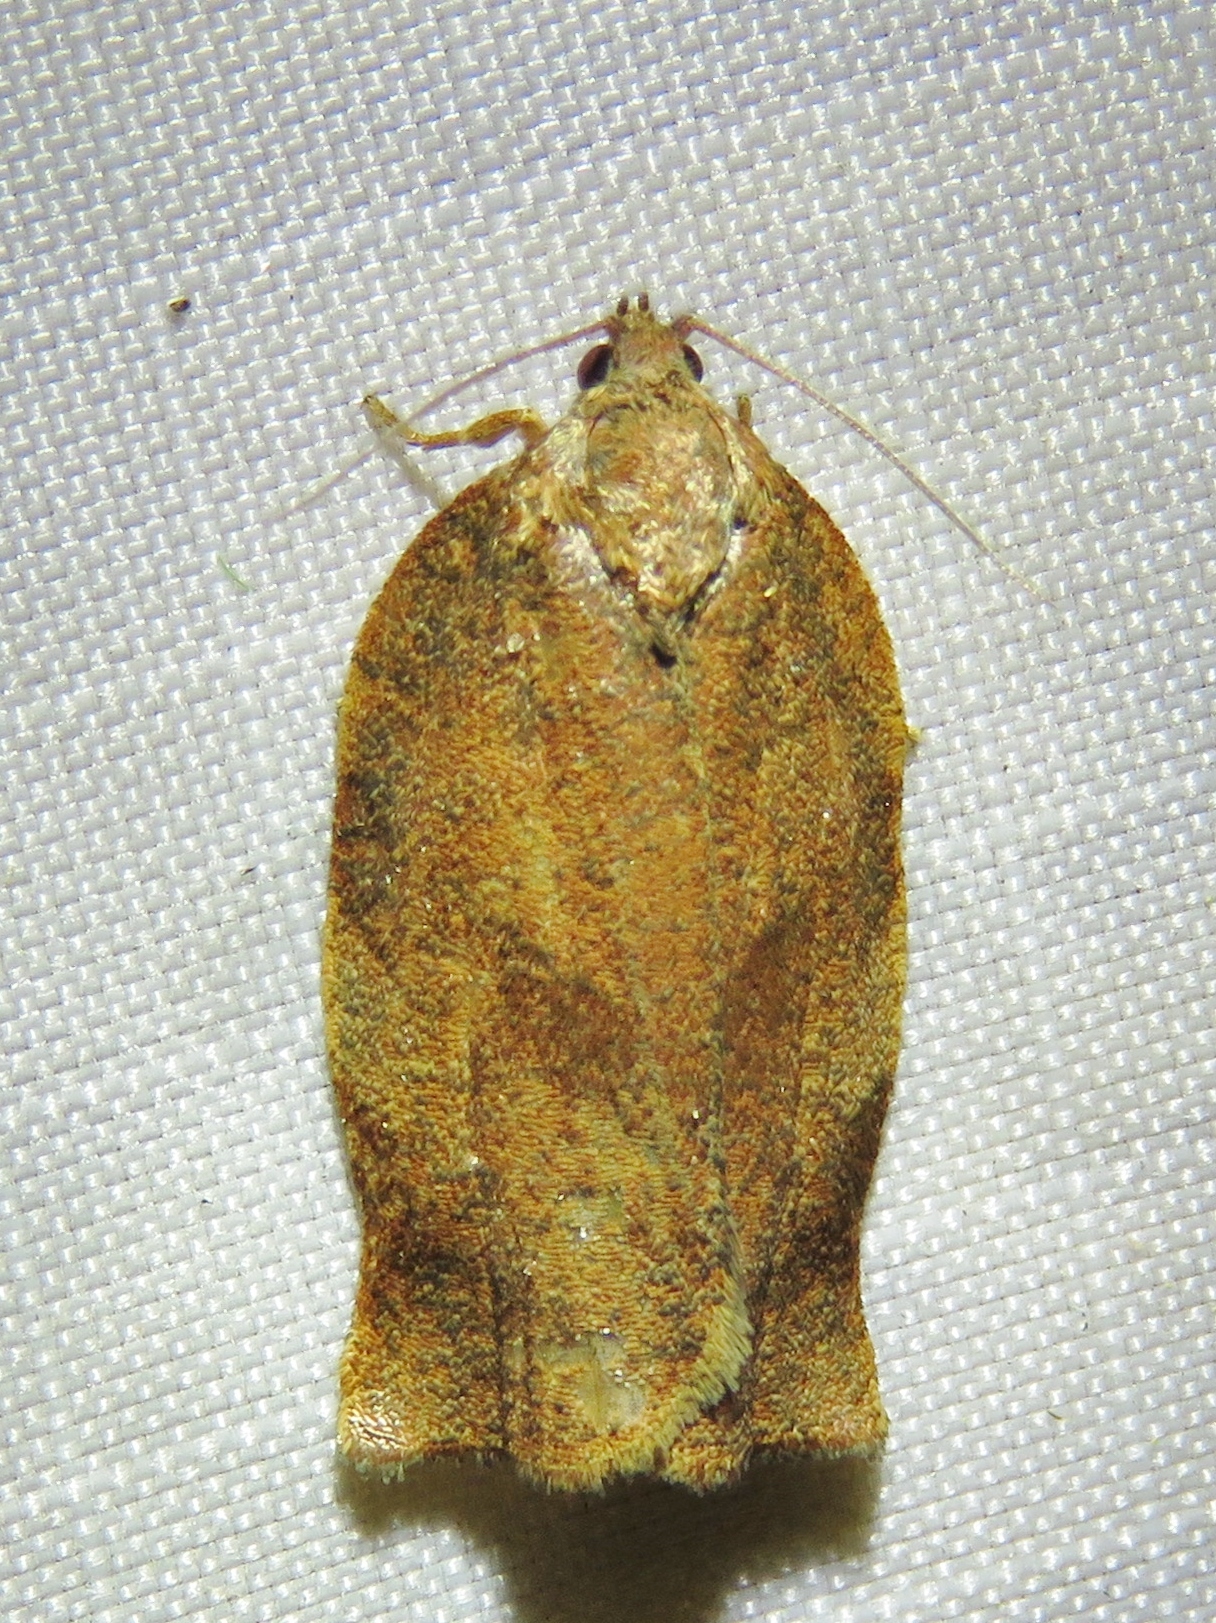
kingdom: Animalia
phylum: Arthropoda
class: Insecta
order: Lepidoptera
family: Tortricidae
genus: Choristoneura
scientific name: Choristoneura rosaceana
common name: Oblique-banded leafroller moth
